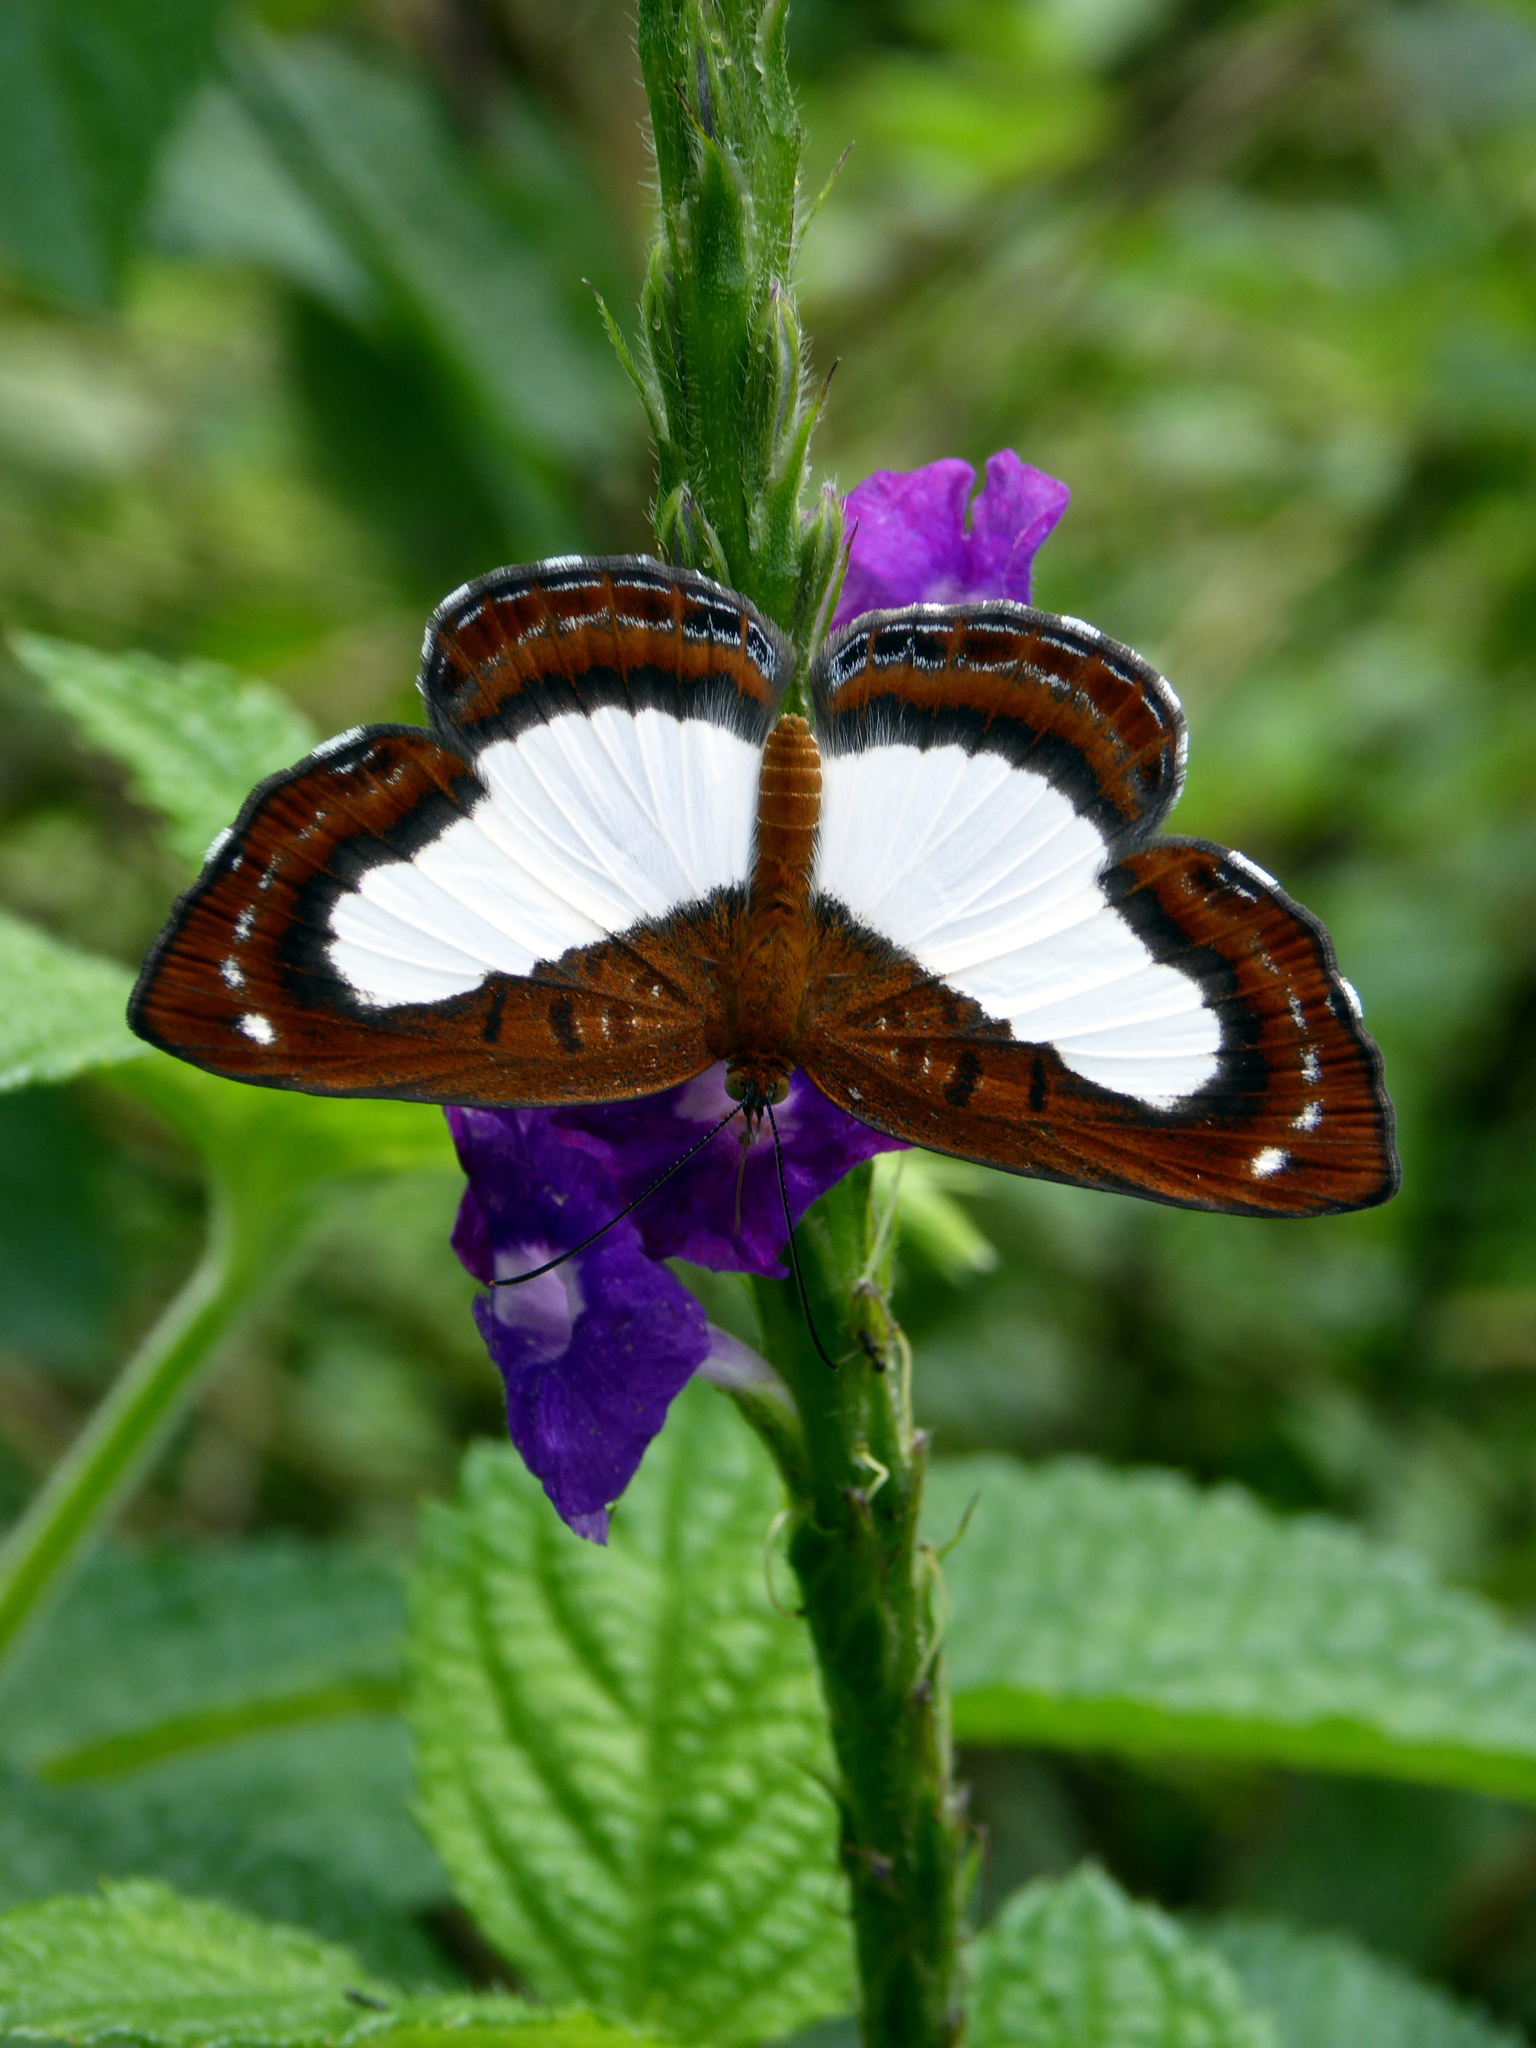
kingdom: Animalia
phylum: Arthropoda
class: Insecta
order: Lepidoptera
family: Riodinidae
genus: Synargis
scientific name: Synargis mycone
